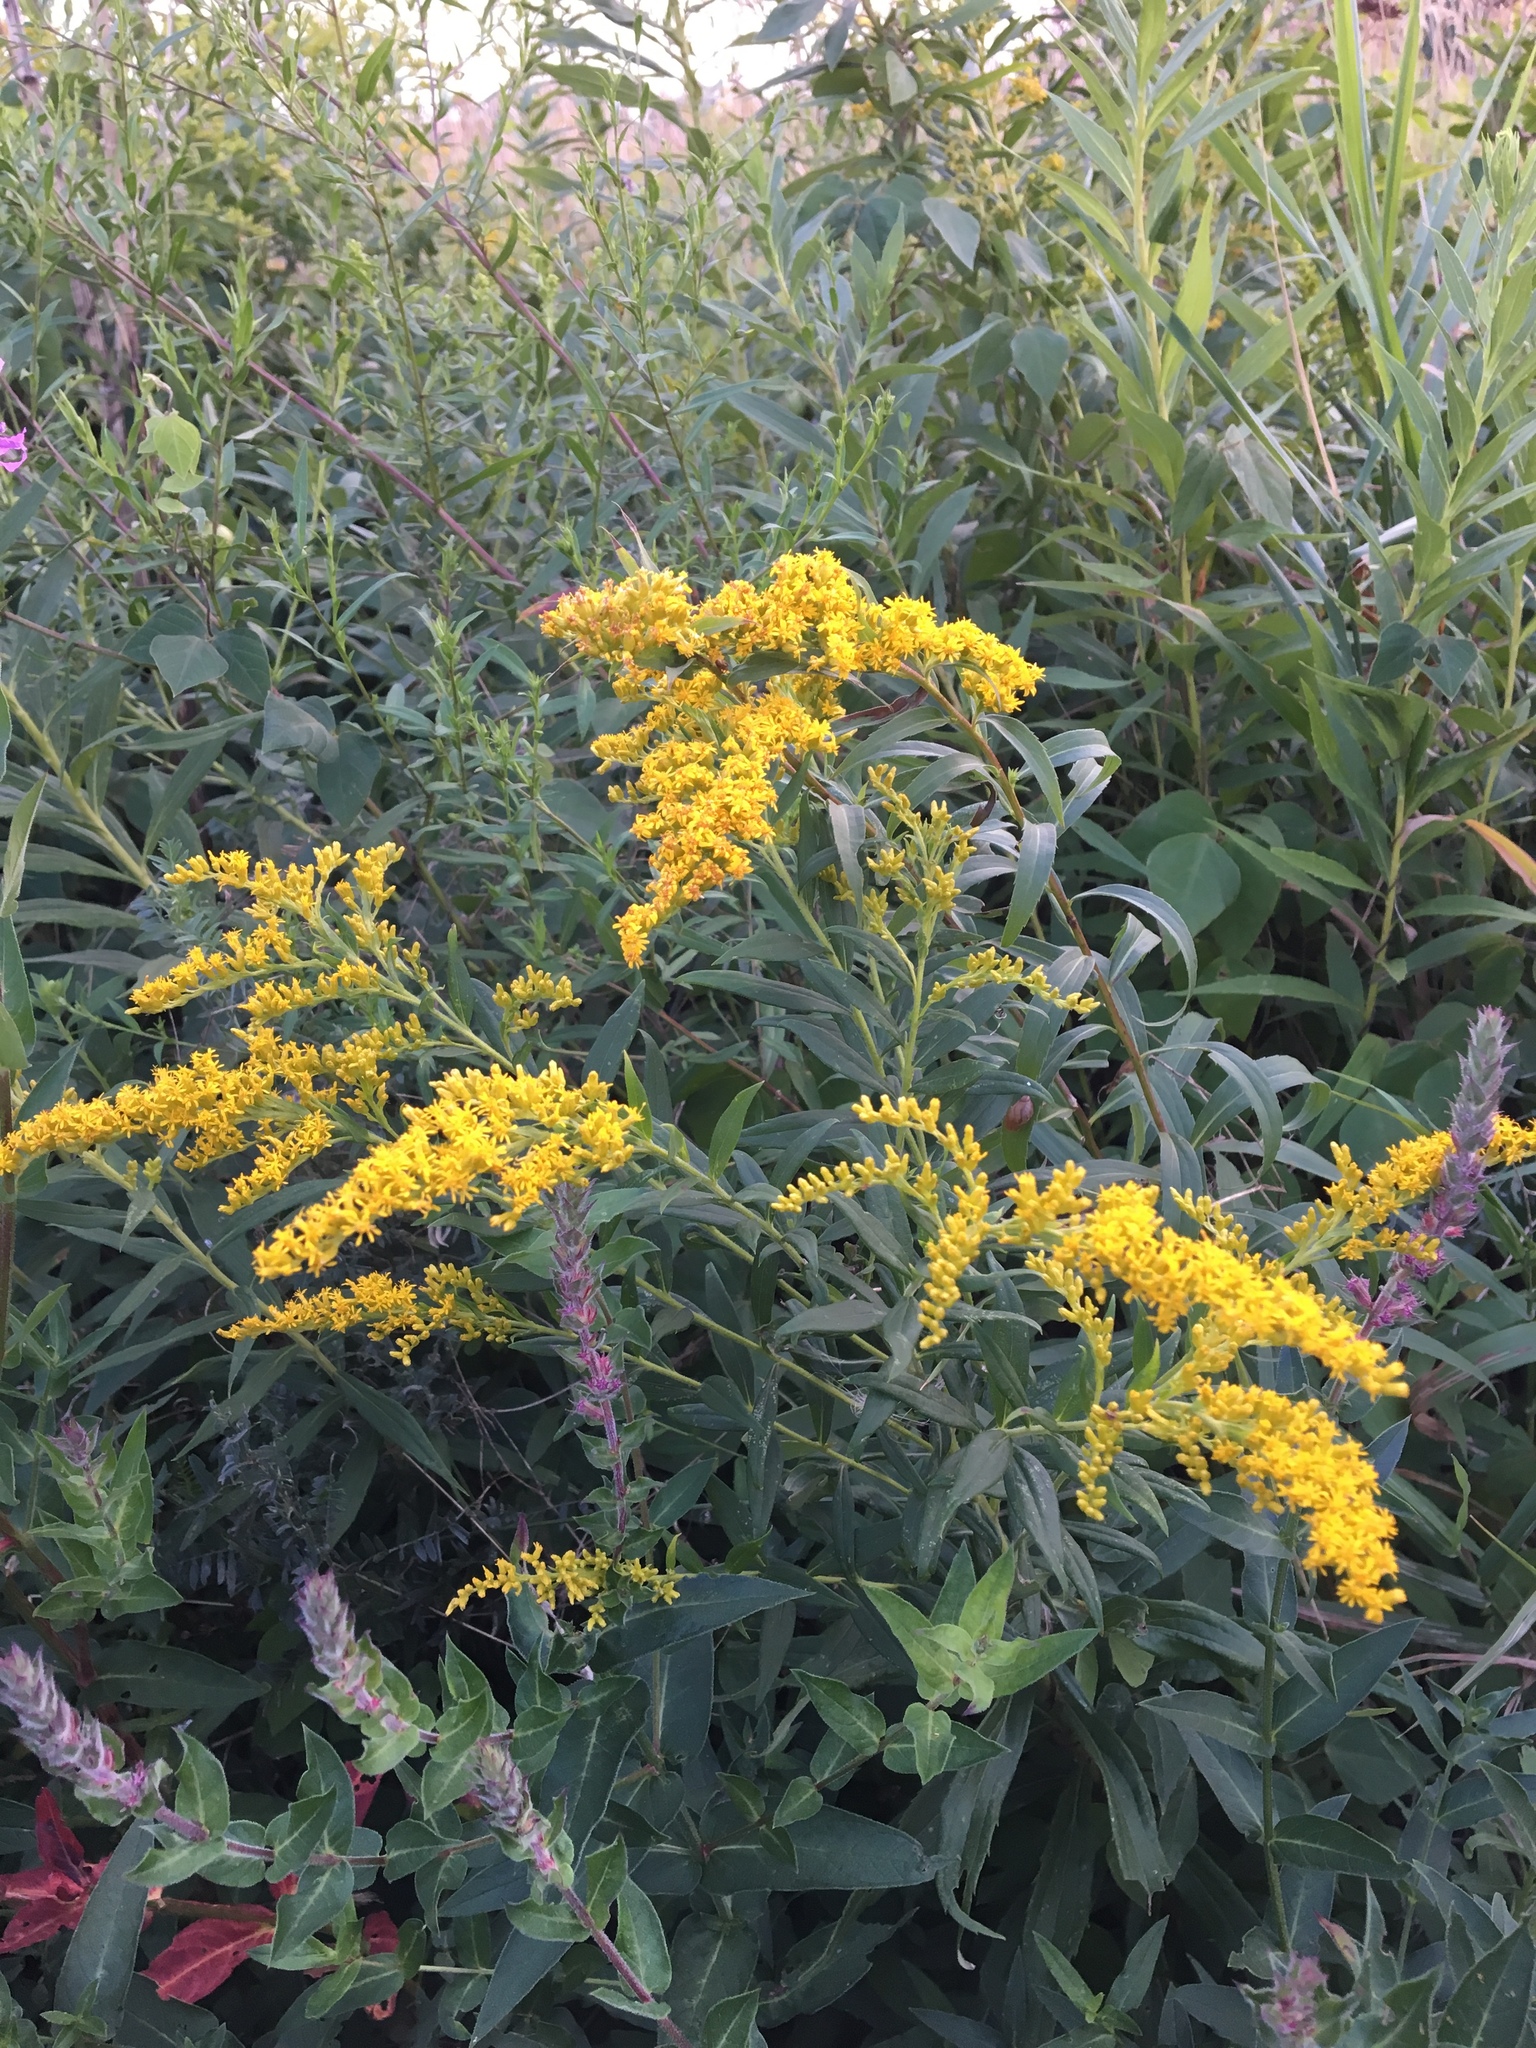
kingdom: Plantae
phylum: Tracheophyta
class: Magnoliopsida
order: Asterales
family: Asteraceae
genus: Solidago
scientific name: Solidago canadensis
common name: Canada goldenrod
